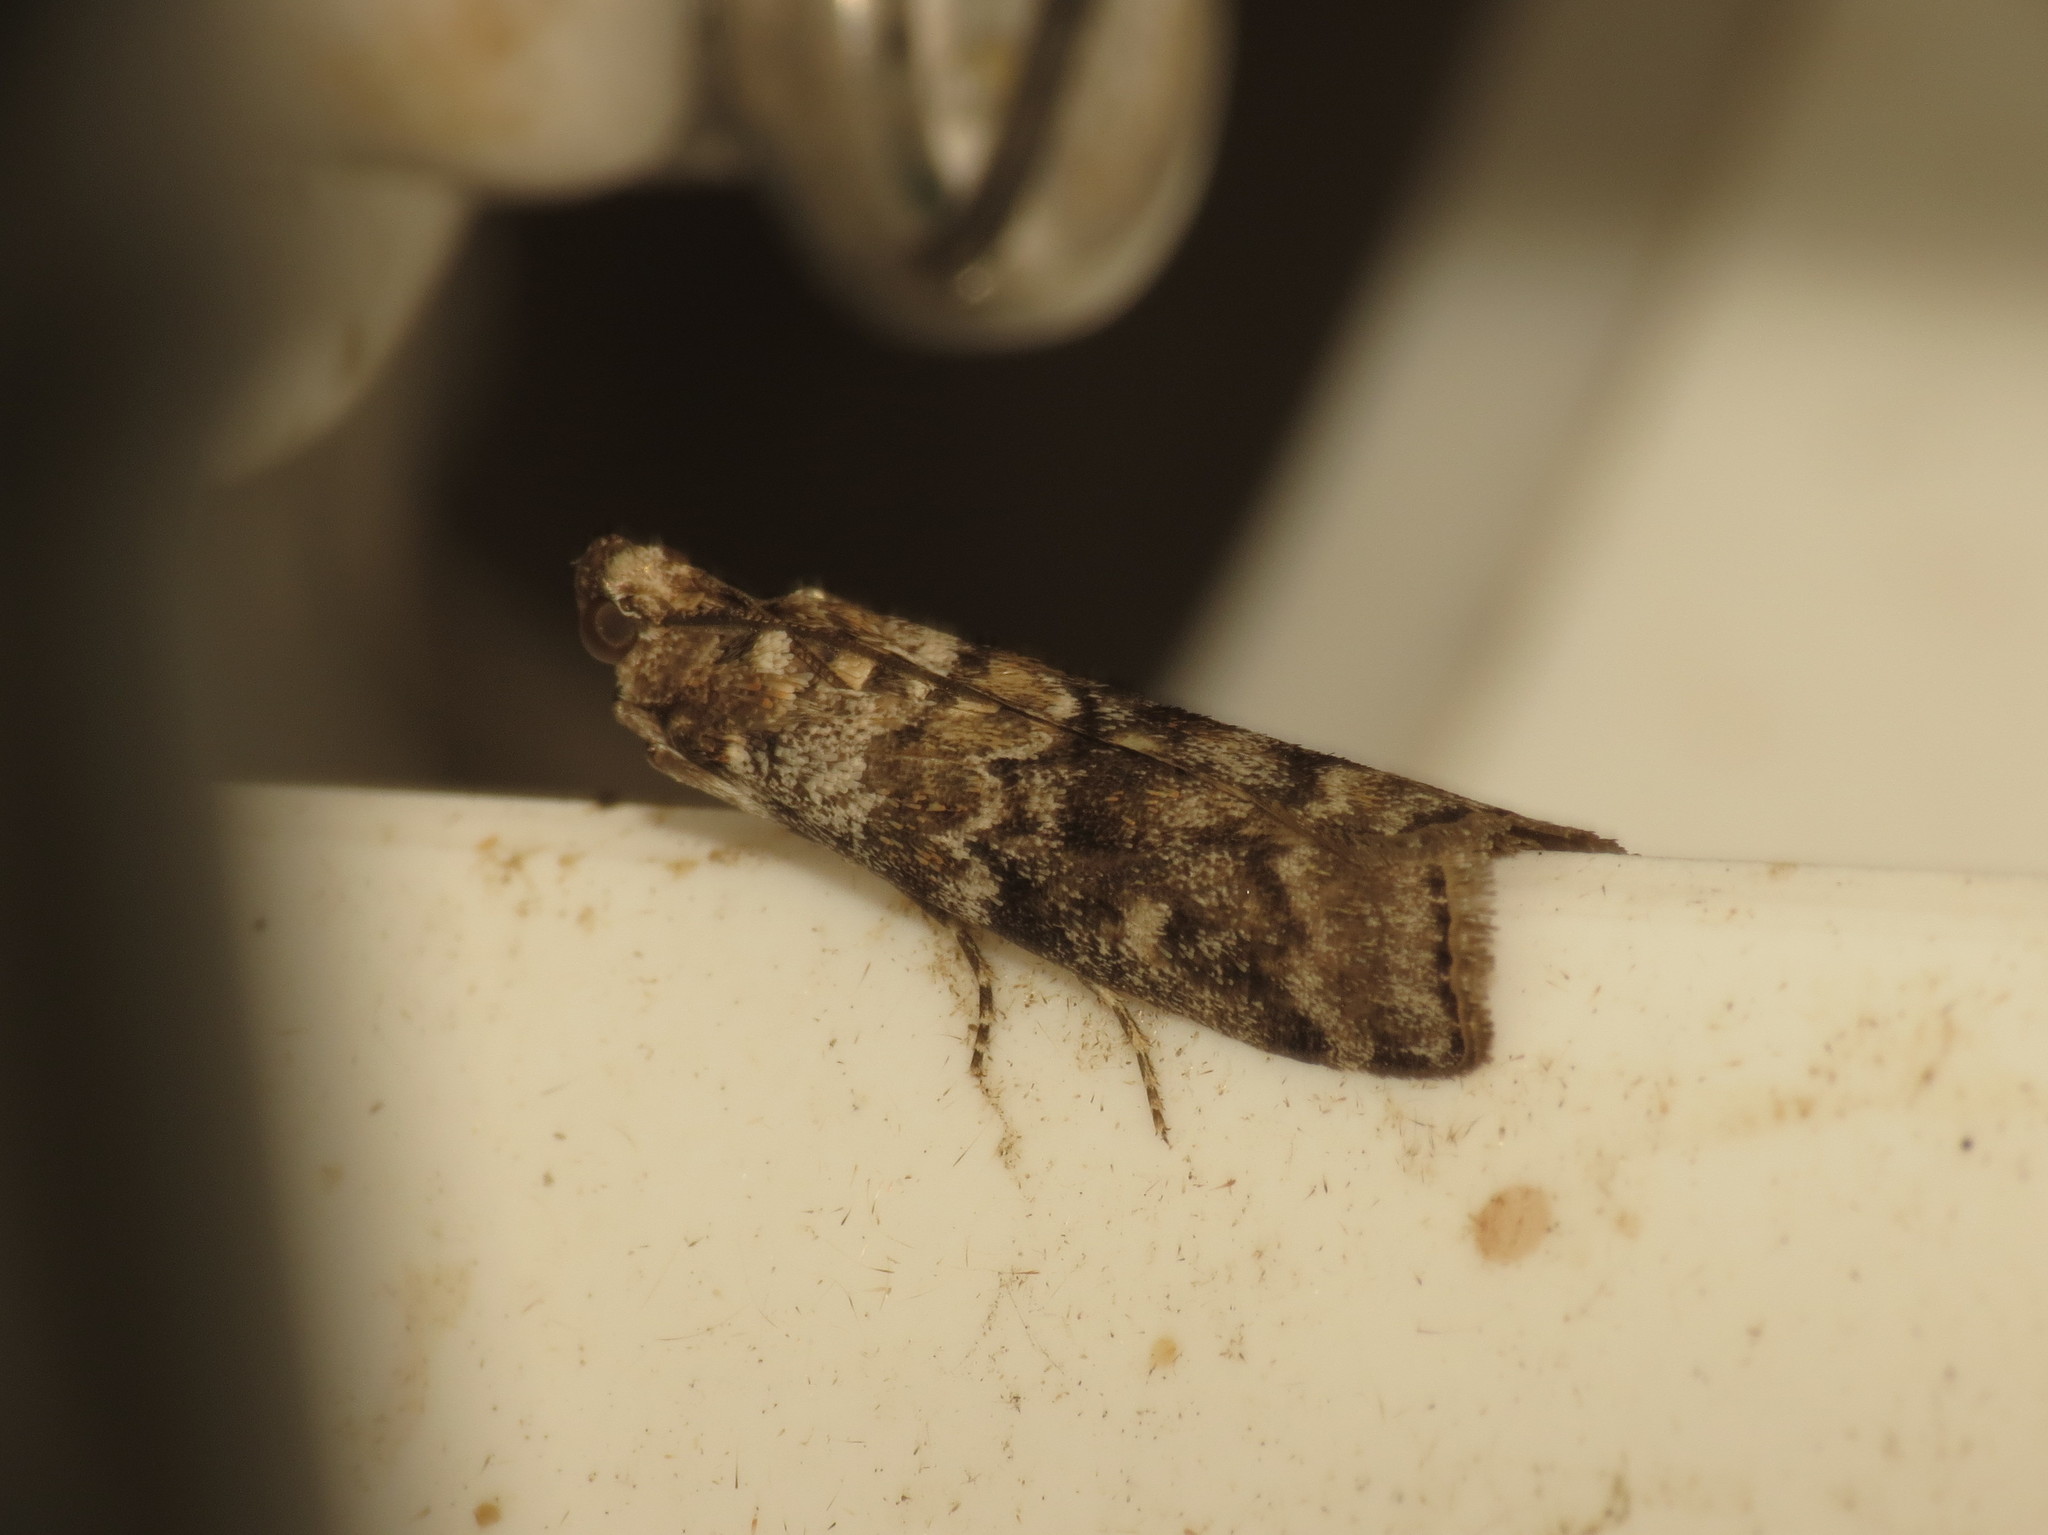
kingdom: Animalia
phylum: Arthropoda
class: Insecta
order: Lepidoptera
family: Pyralidae
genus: Dioryctria
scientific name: Dioryctria sylvestrella
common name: New pine knot-horn
